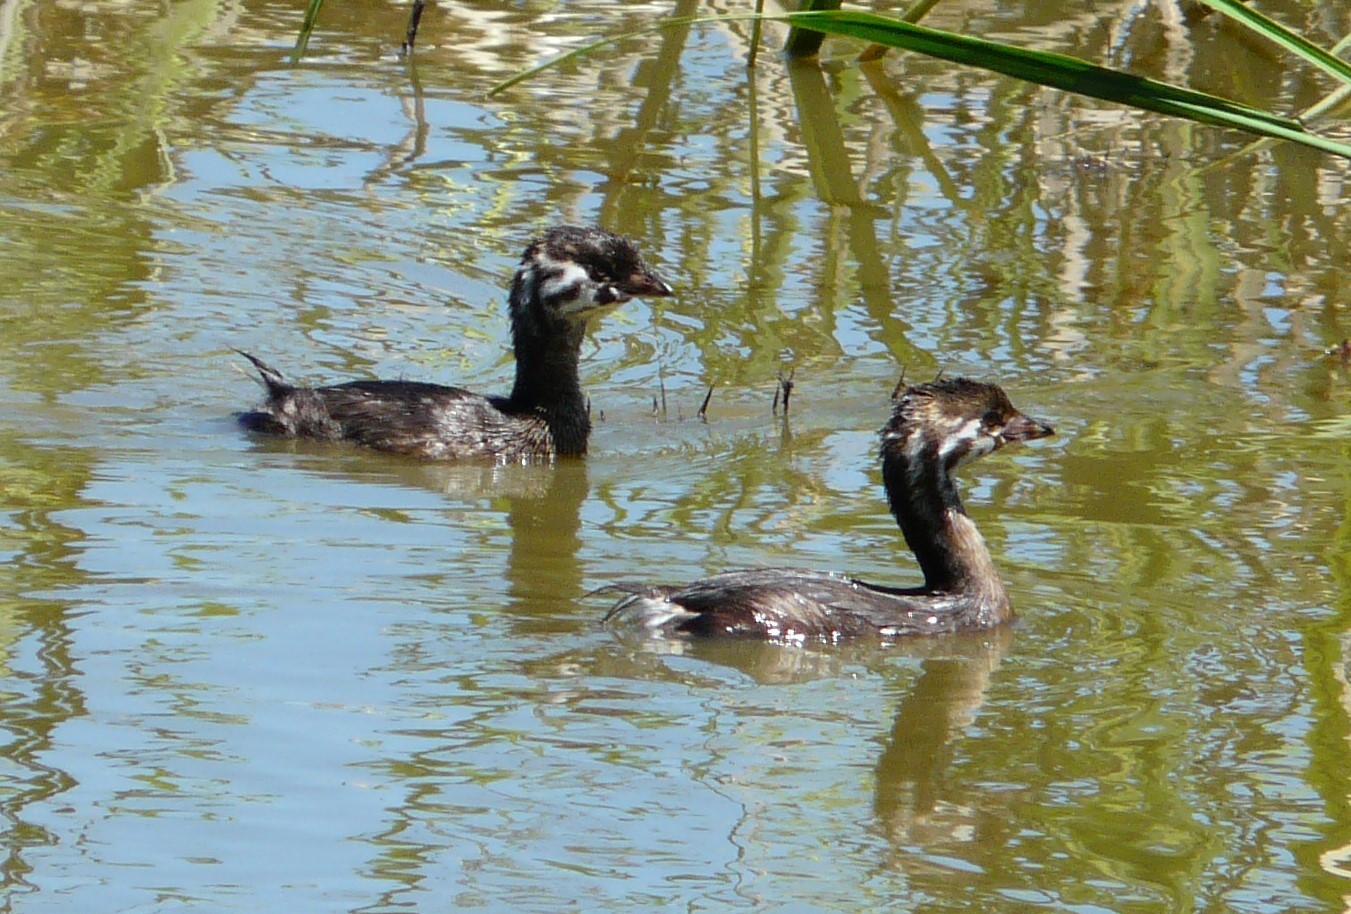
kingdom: Animalia
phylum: Chordata
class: Aves
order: Podicipediformes
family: Podicipedidae
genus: Podilymbus
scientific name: Podilymbus podiceps
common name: Pied-billed grebe
